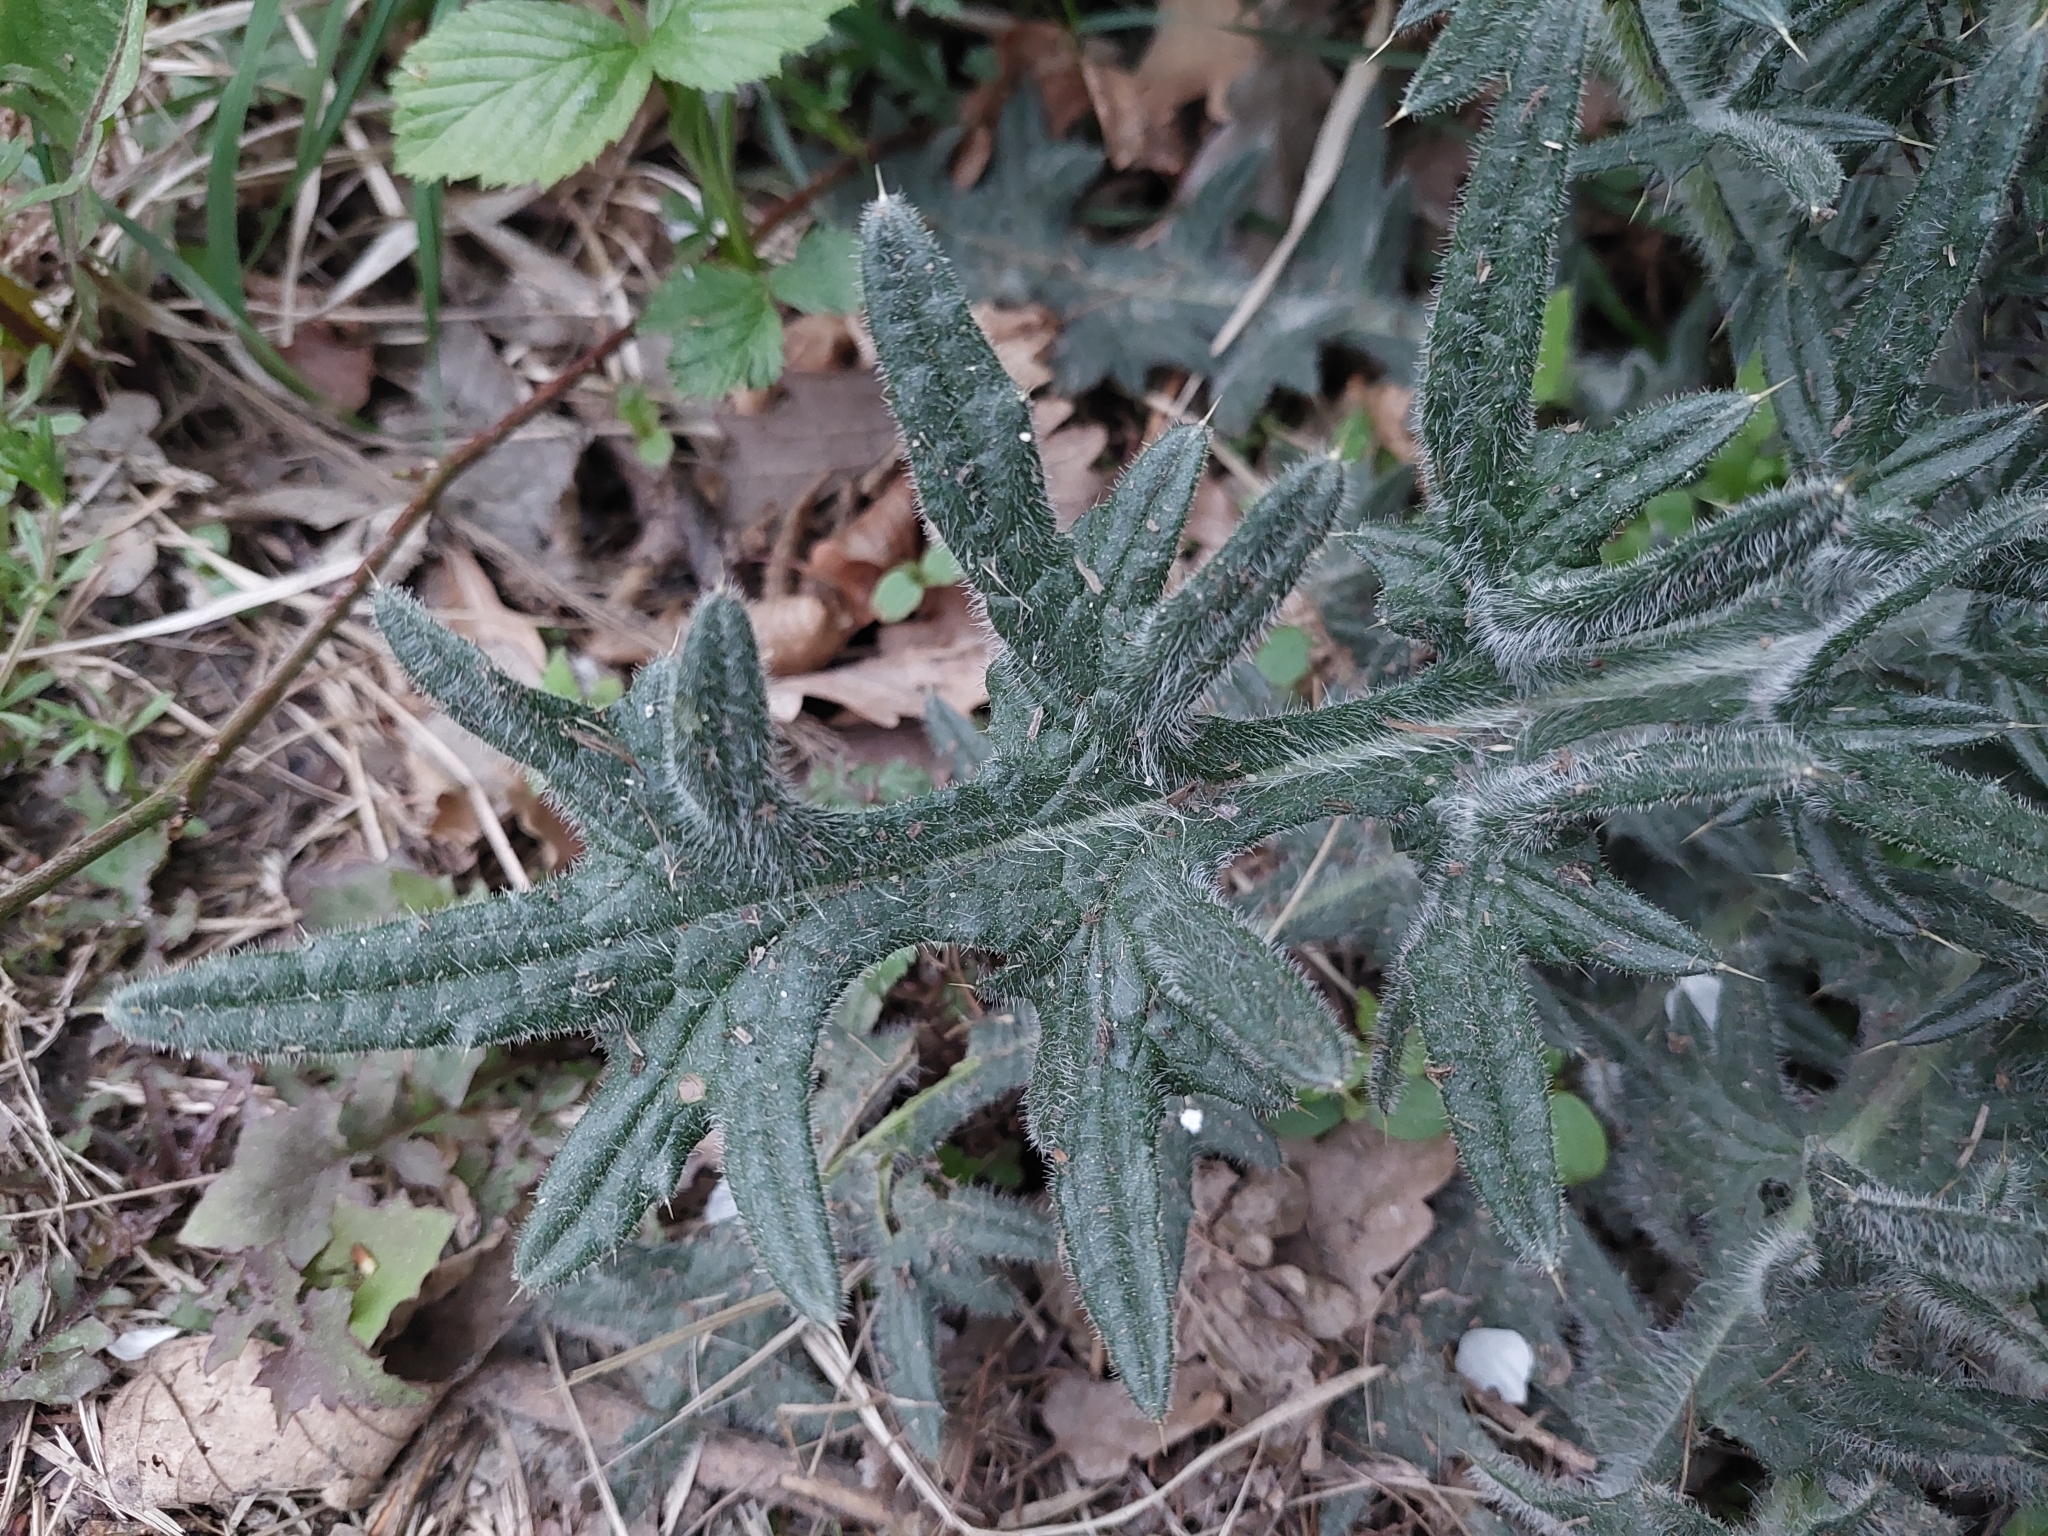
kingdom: Plantae
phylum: Tracheophyta
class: Magnoliopsida
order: Asterales
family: Asteraceae
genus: Cirsium
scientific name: Cirsium vulgare
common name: Bull thistle
